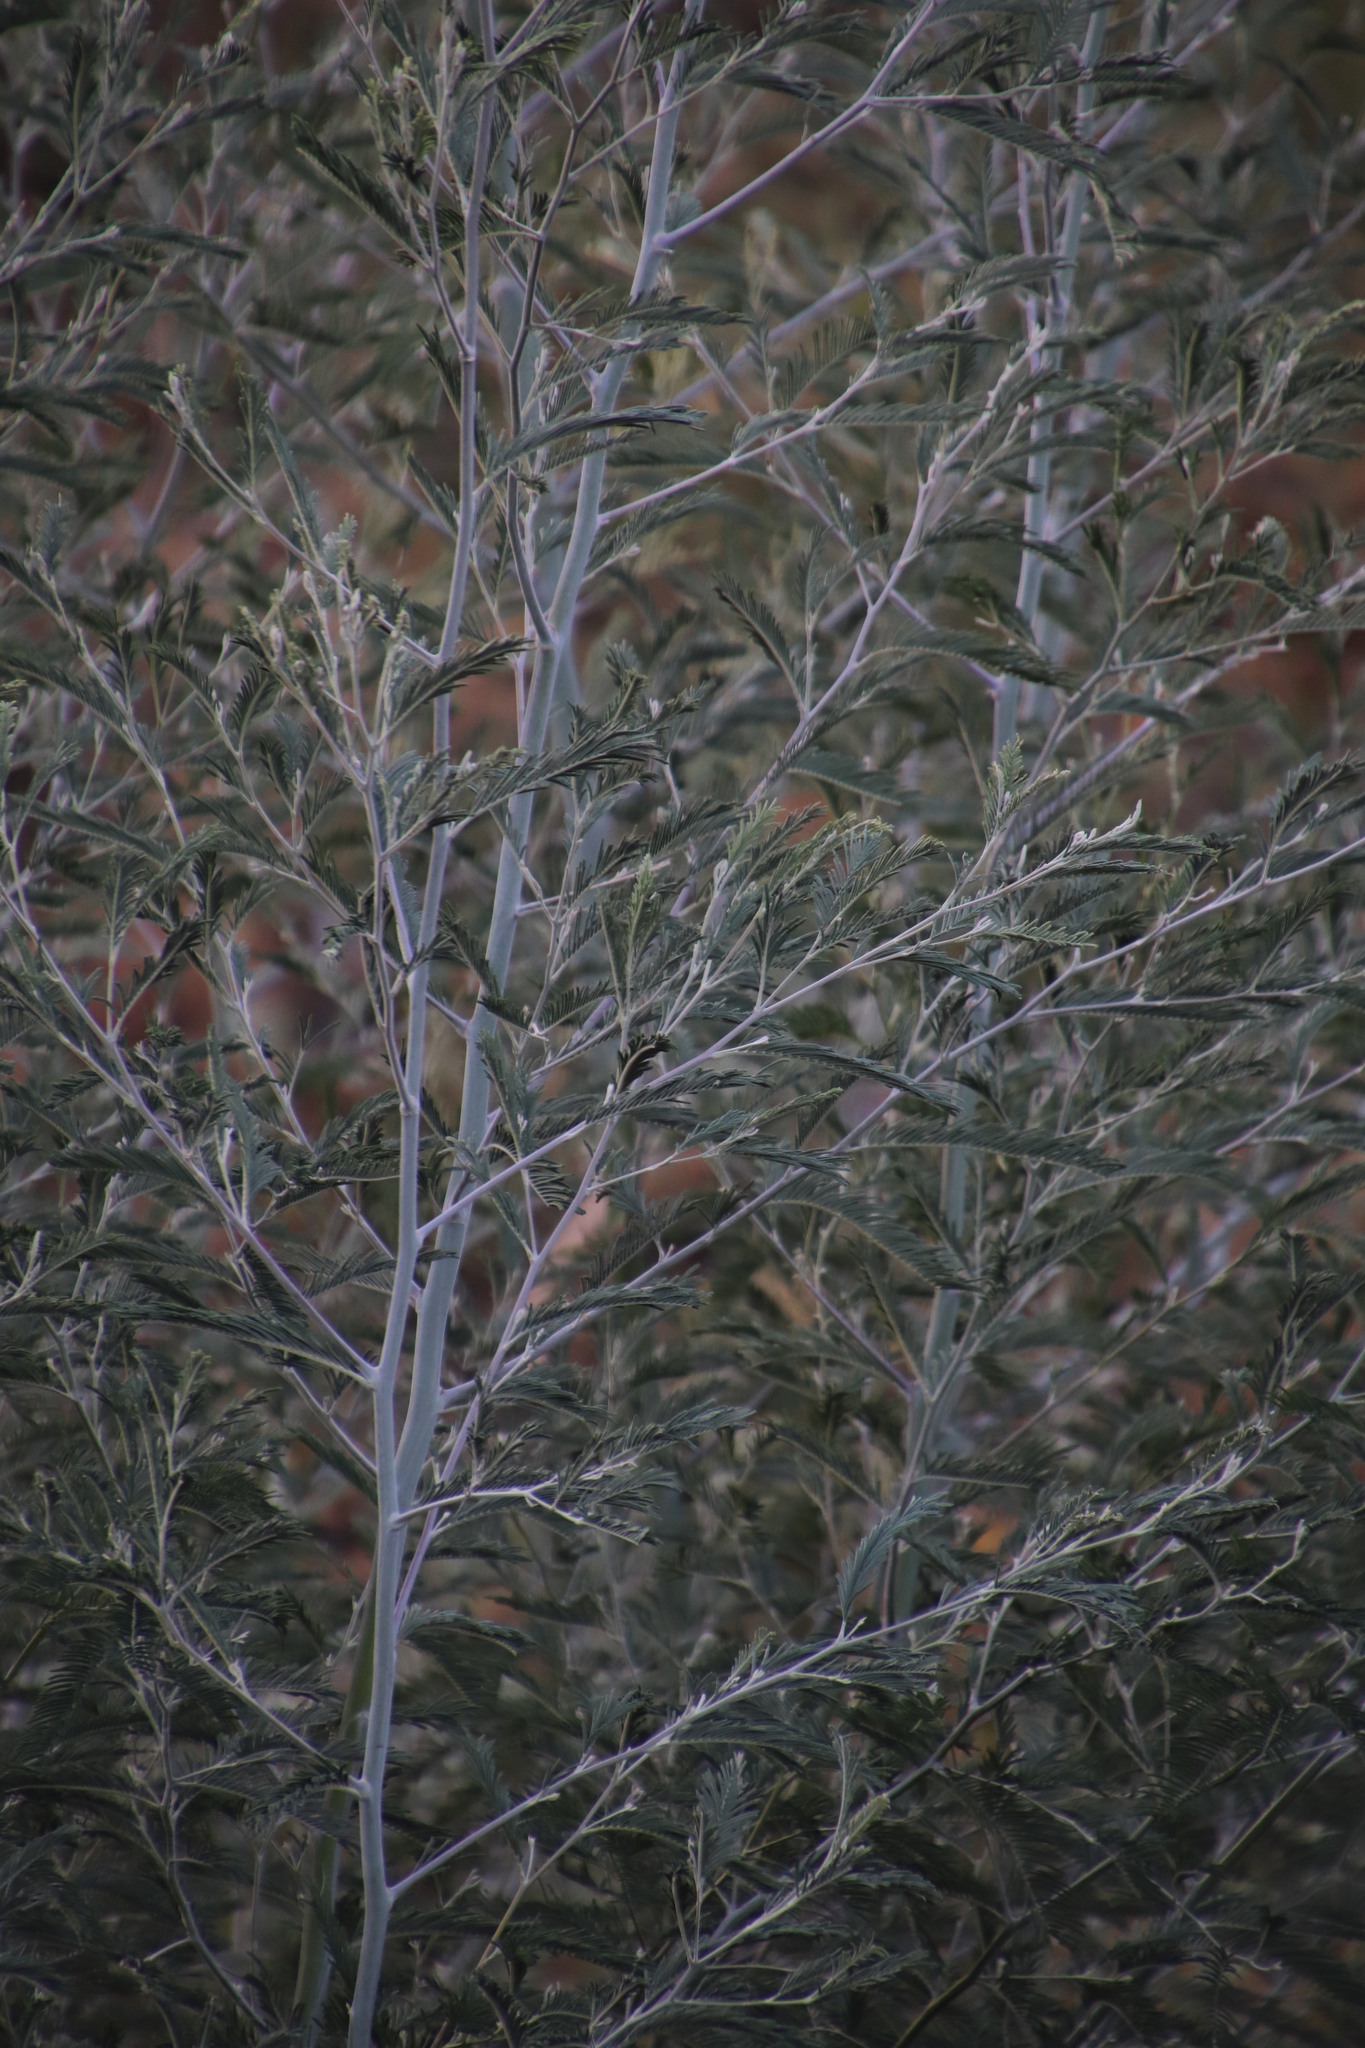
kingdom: Plantae
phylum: Tracheophyta
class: Magnoliopsida
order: Fabales
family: Fabaceae
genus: Acacia
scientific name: Acacia dealbata
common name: Silver wattle
